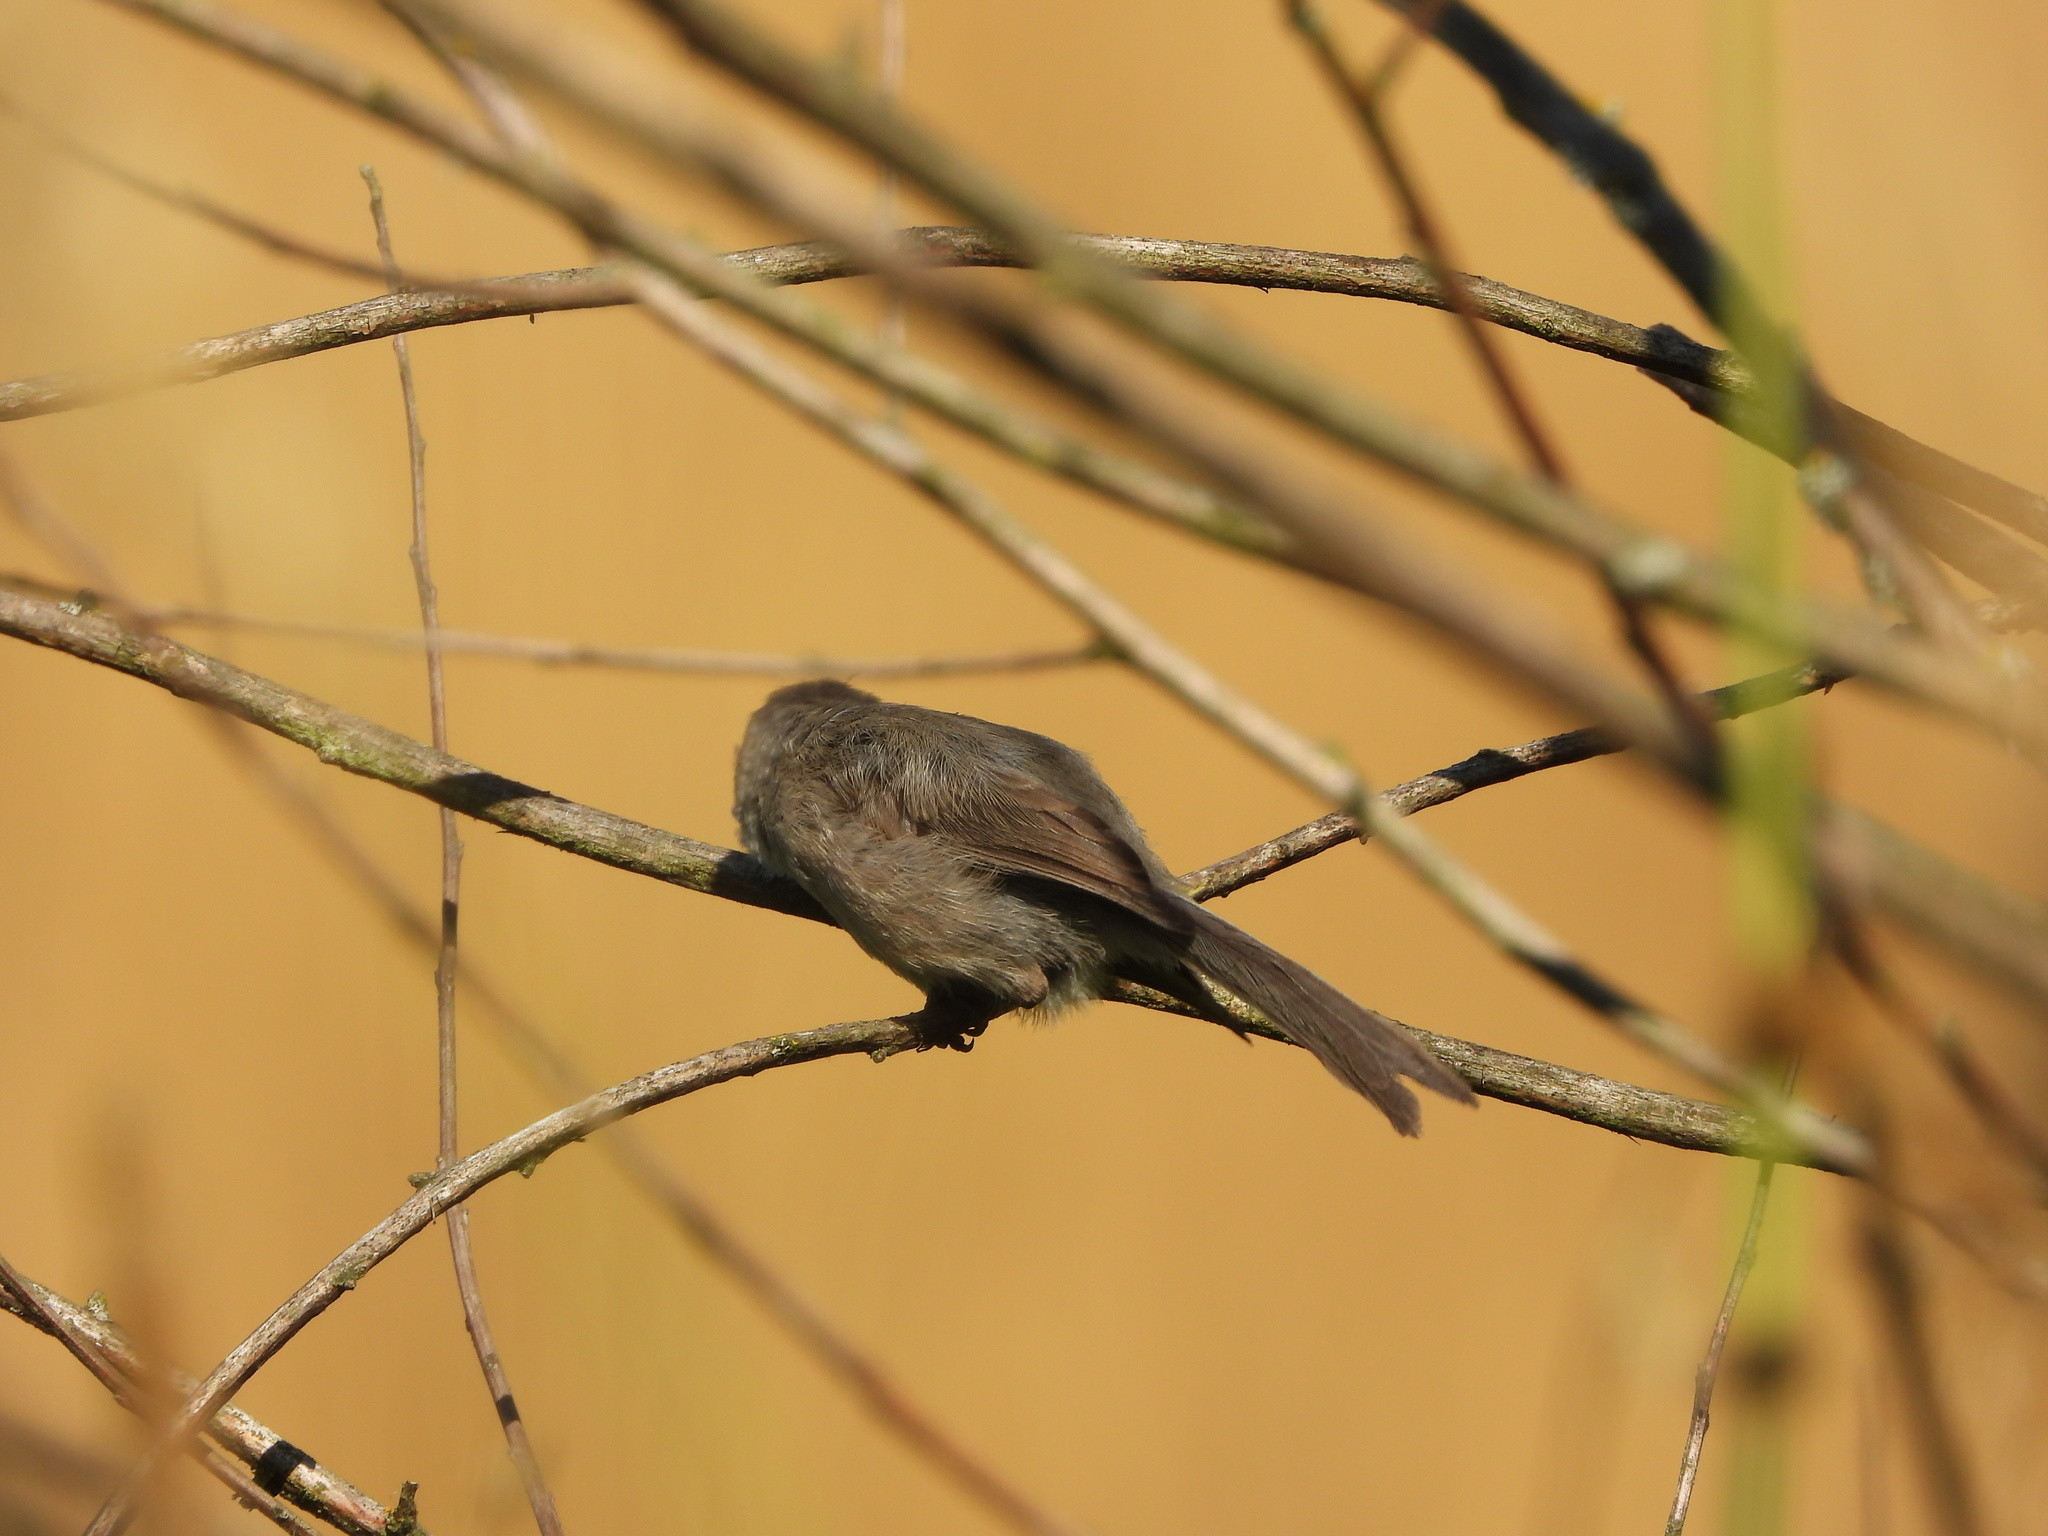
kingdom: Animalia
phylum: Chordata
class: Aves
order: Passeriformes
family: Aegithalidae
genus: Psaltriparus
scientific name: Psaltriparus minimus
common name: American bushtit
